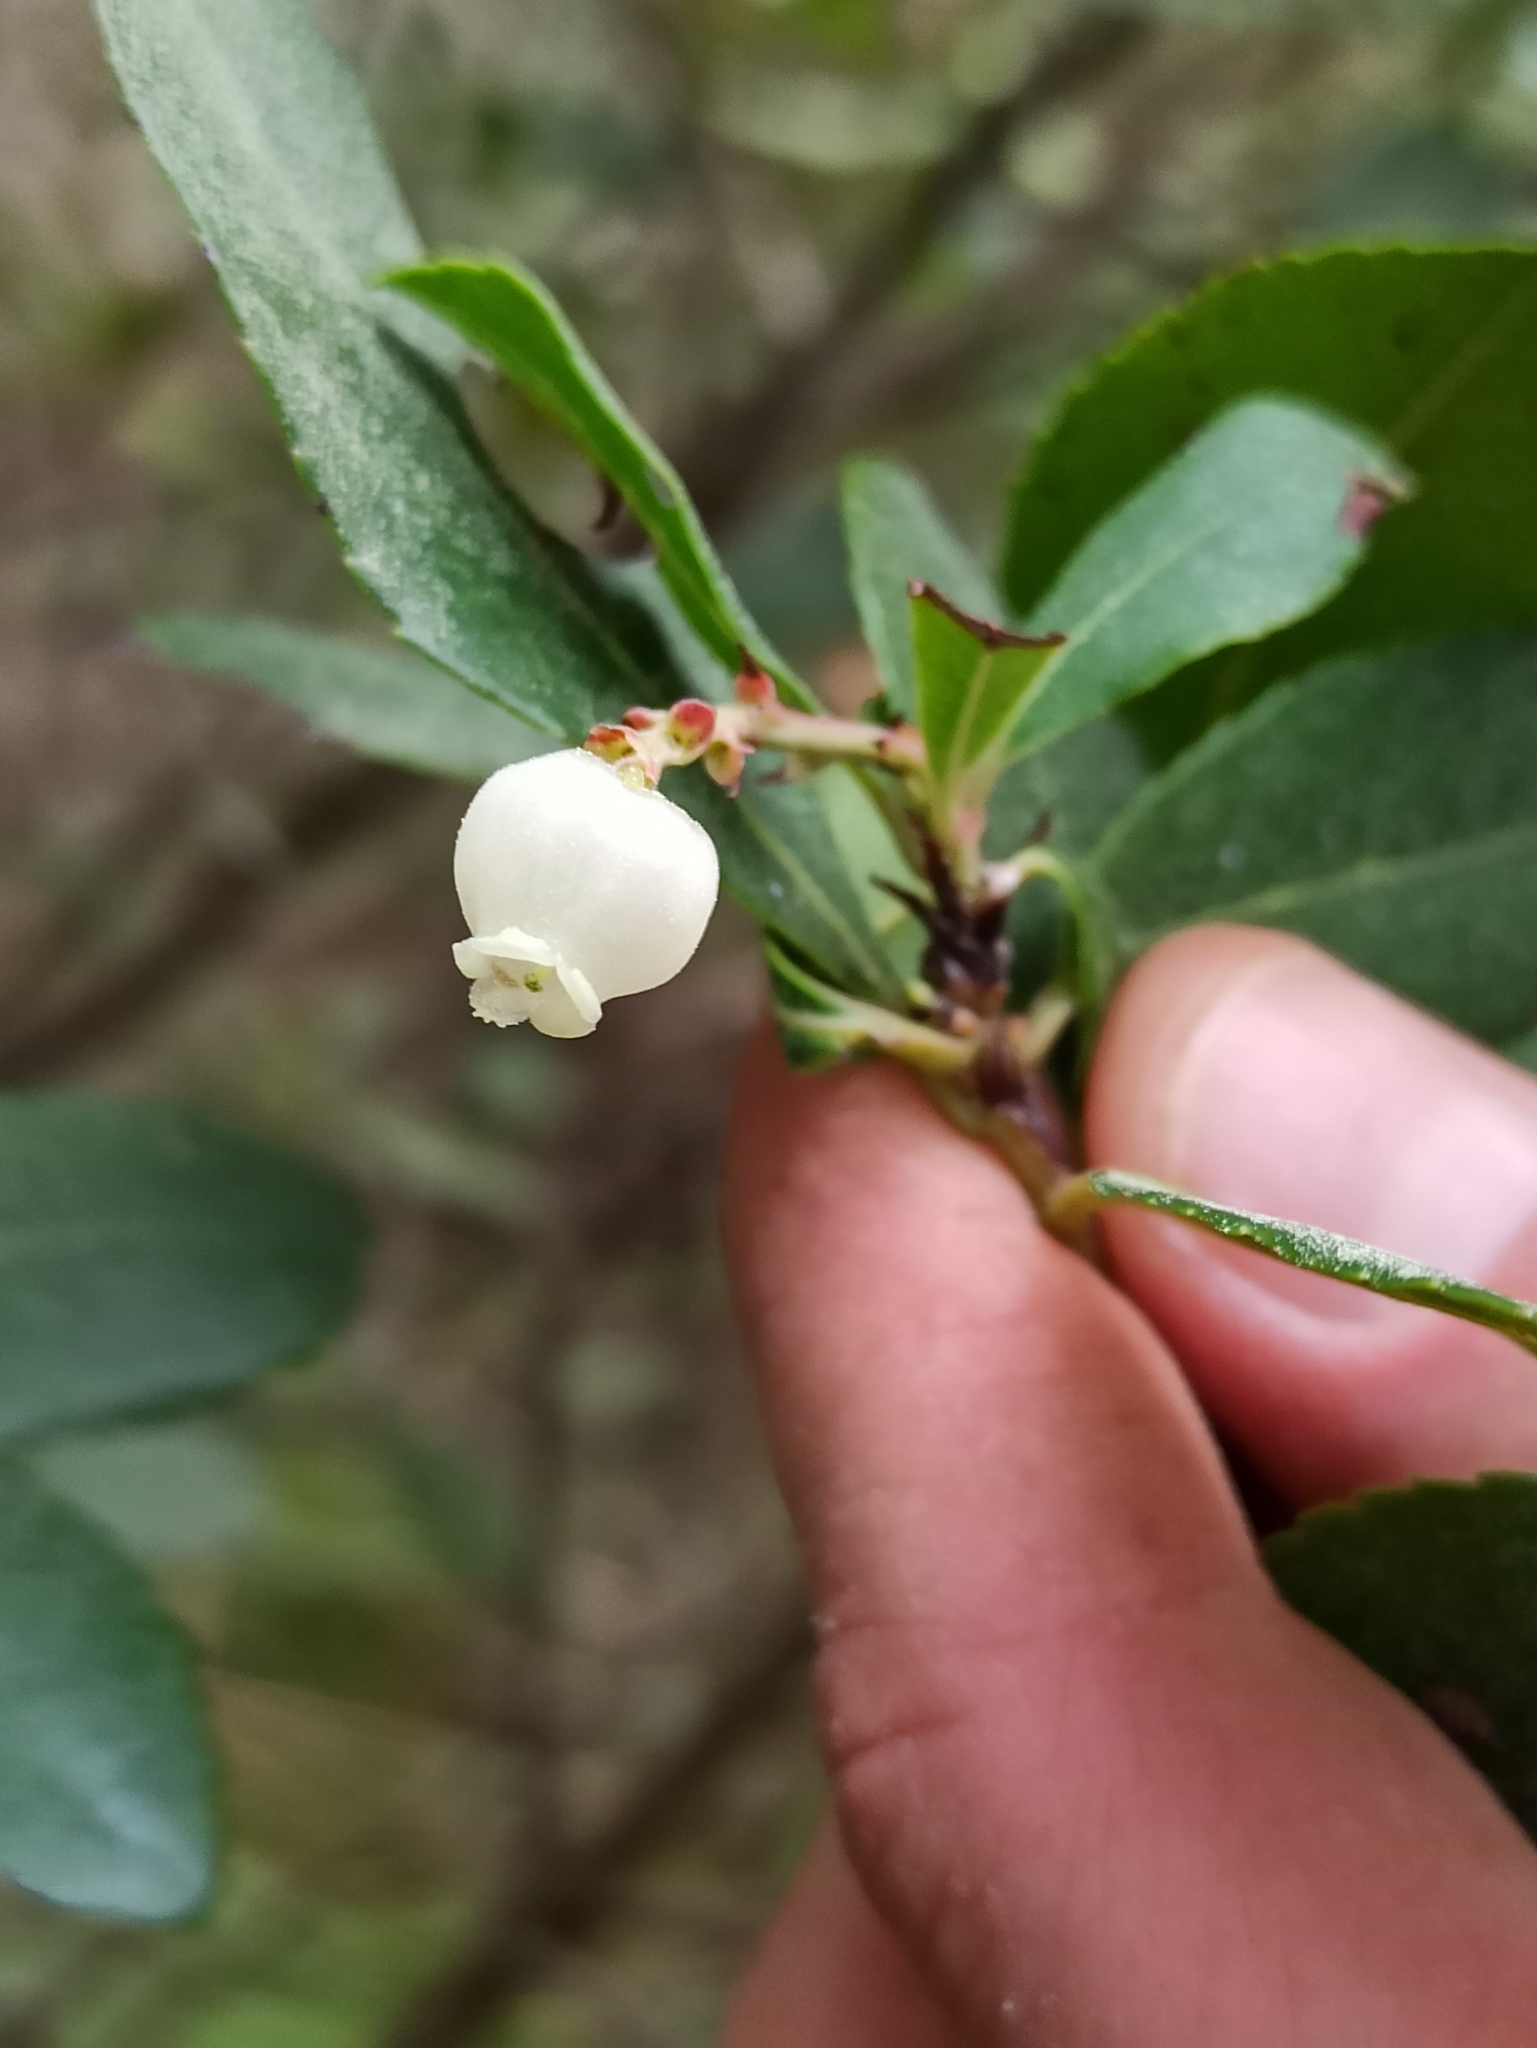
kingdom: Plantae
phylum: Tracheophyta
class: Magnoliopsida
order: Ericales
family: Ericaceae
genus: Arbutus
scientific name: Arbutus unedo
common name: Strawberry-tree
